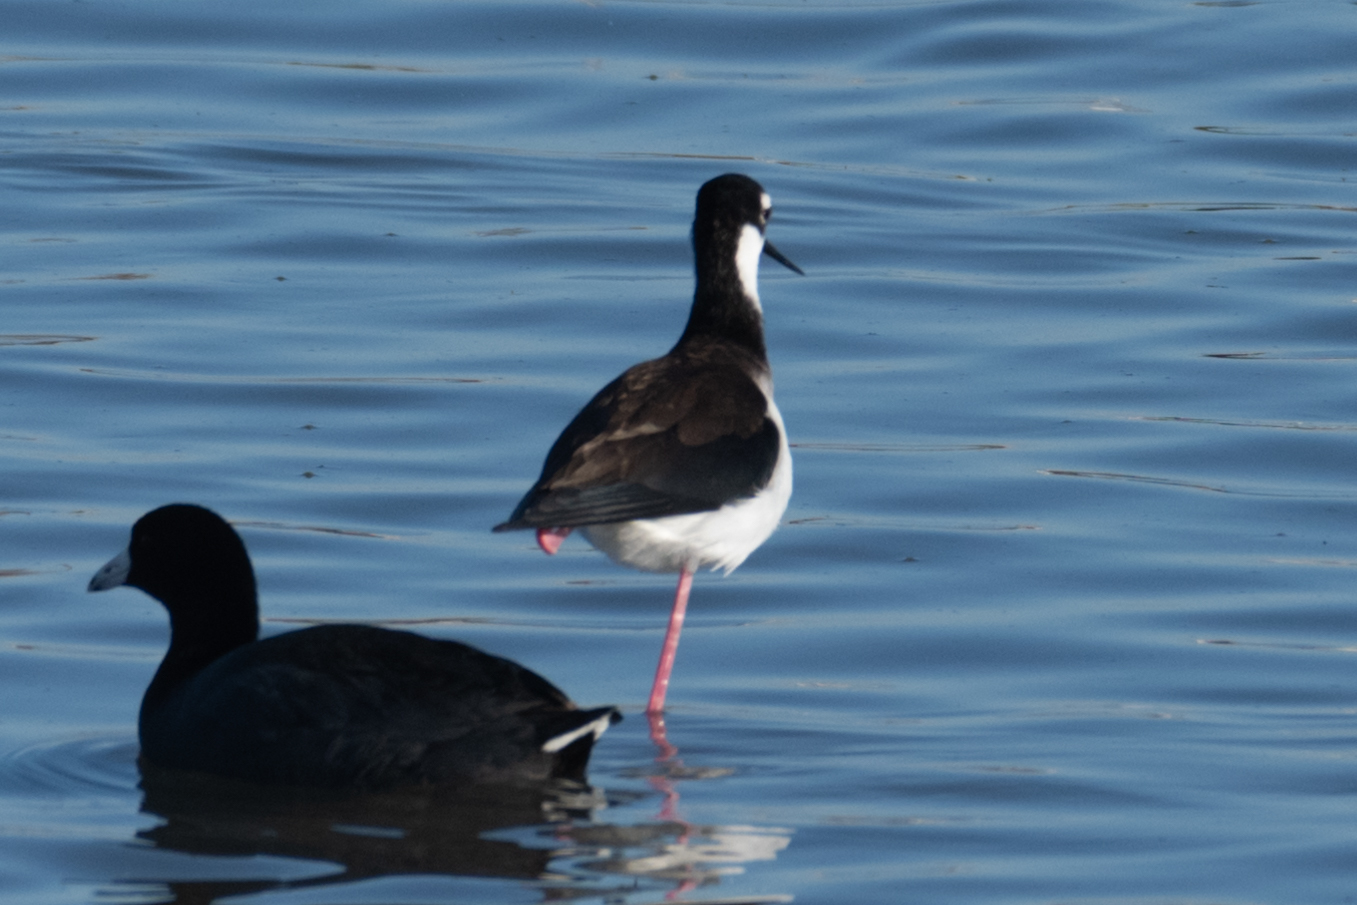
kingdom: Animalia
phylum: Chordata
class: Aves
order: Charadriiformes
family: Recurvirostridae
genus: Himantopus
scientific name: Himantopus mexicanus
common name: Black-necked stilt
